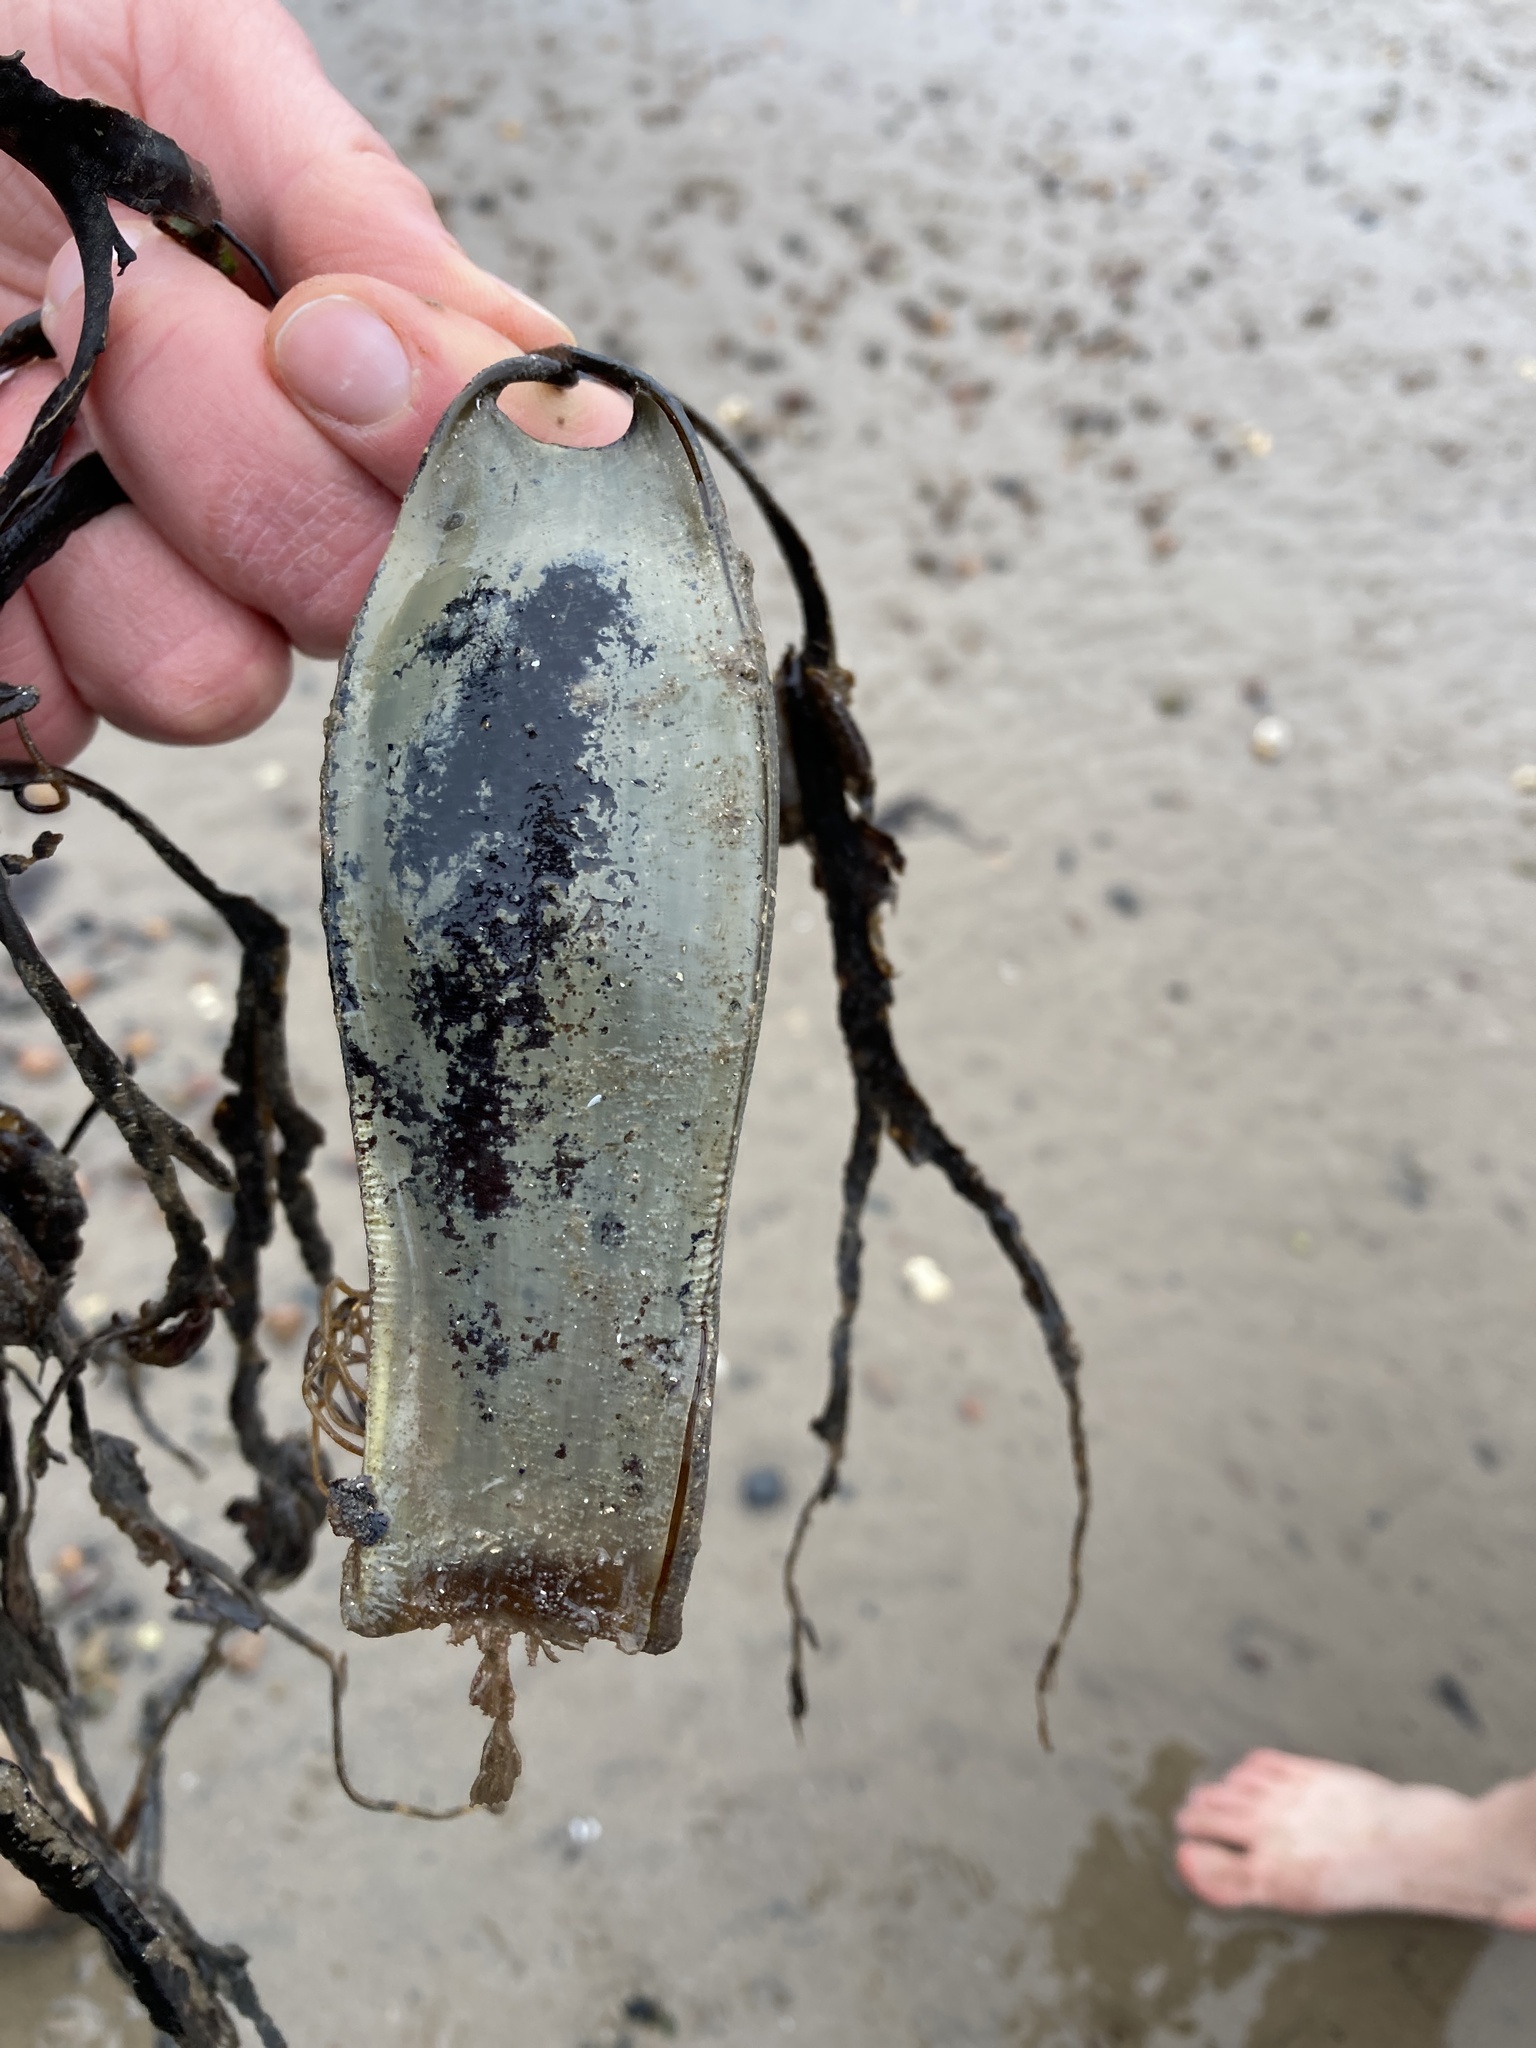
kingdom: Animalia
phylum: Chordata
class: Elasmobranchii
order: Carcharhiniformes
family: Scyliorhinidae
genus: Scyliorhinus
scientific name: Scyliorhinus stellaris
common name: Nursehound
